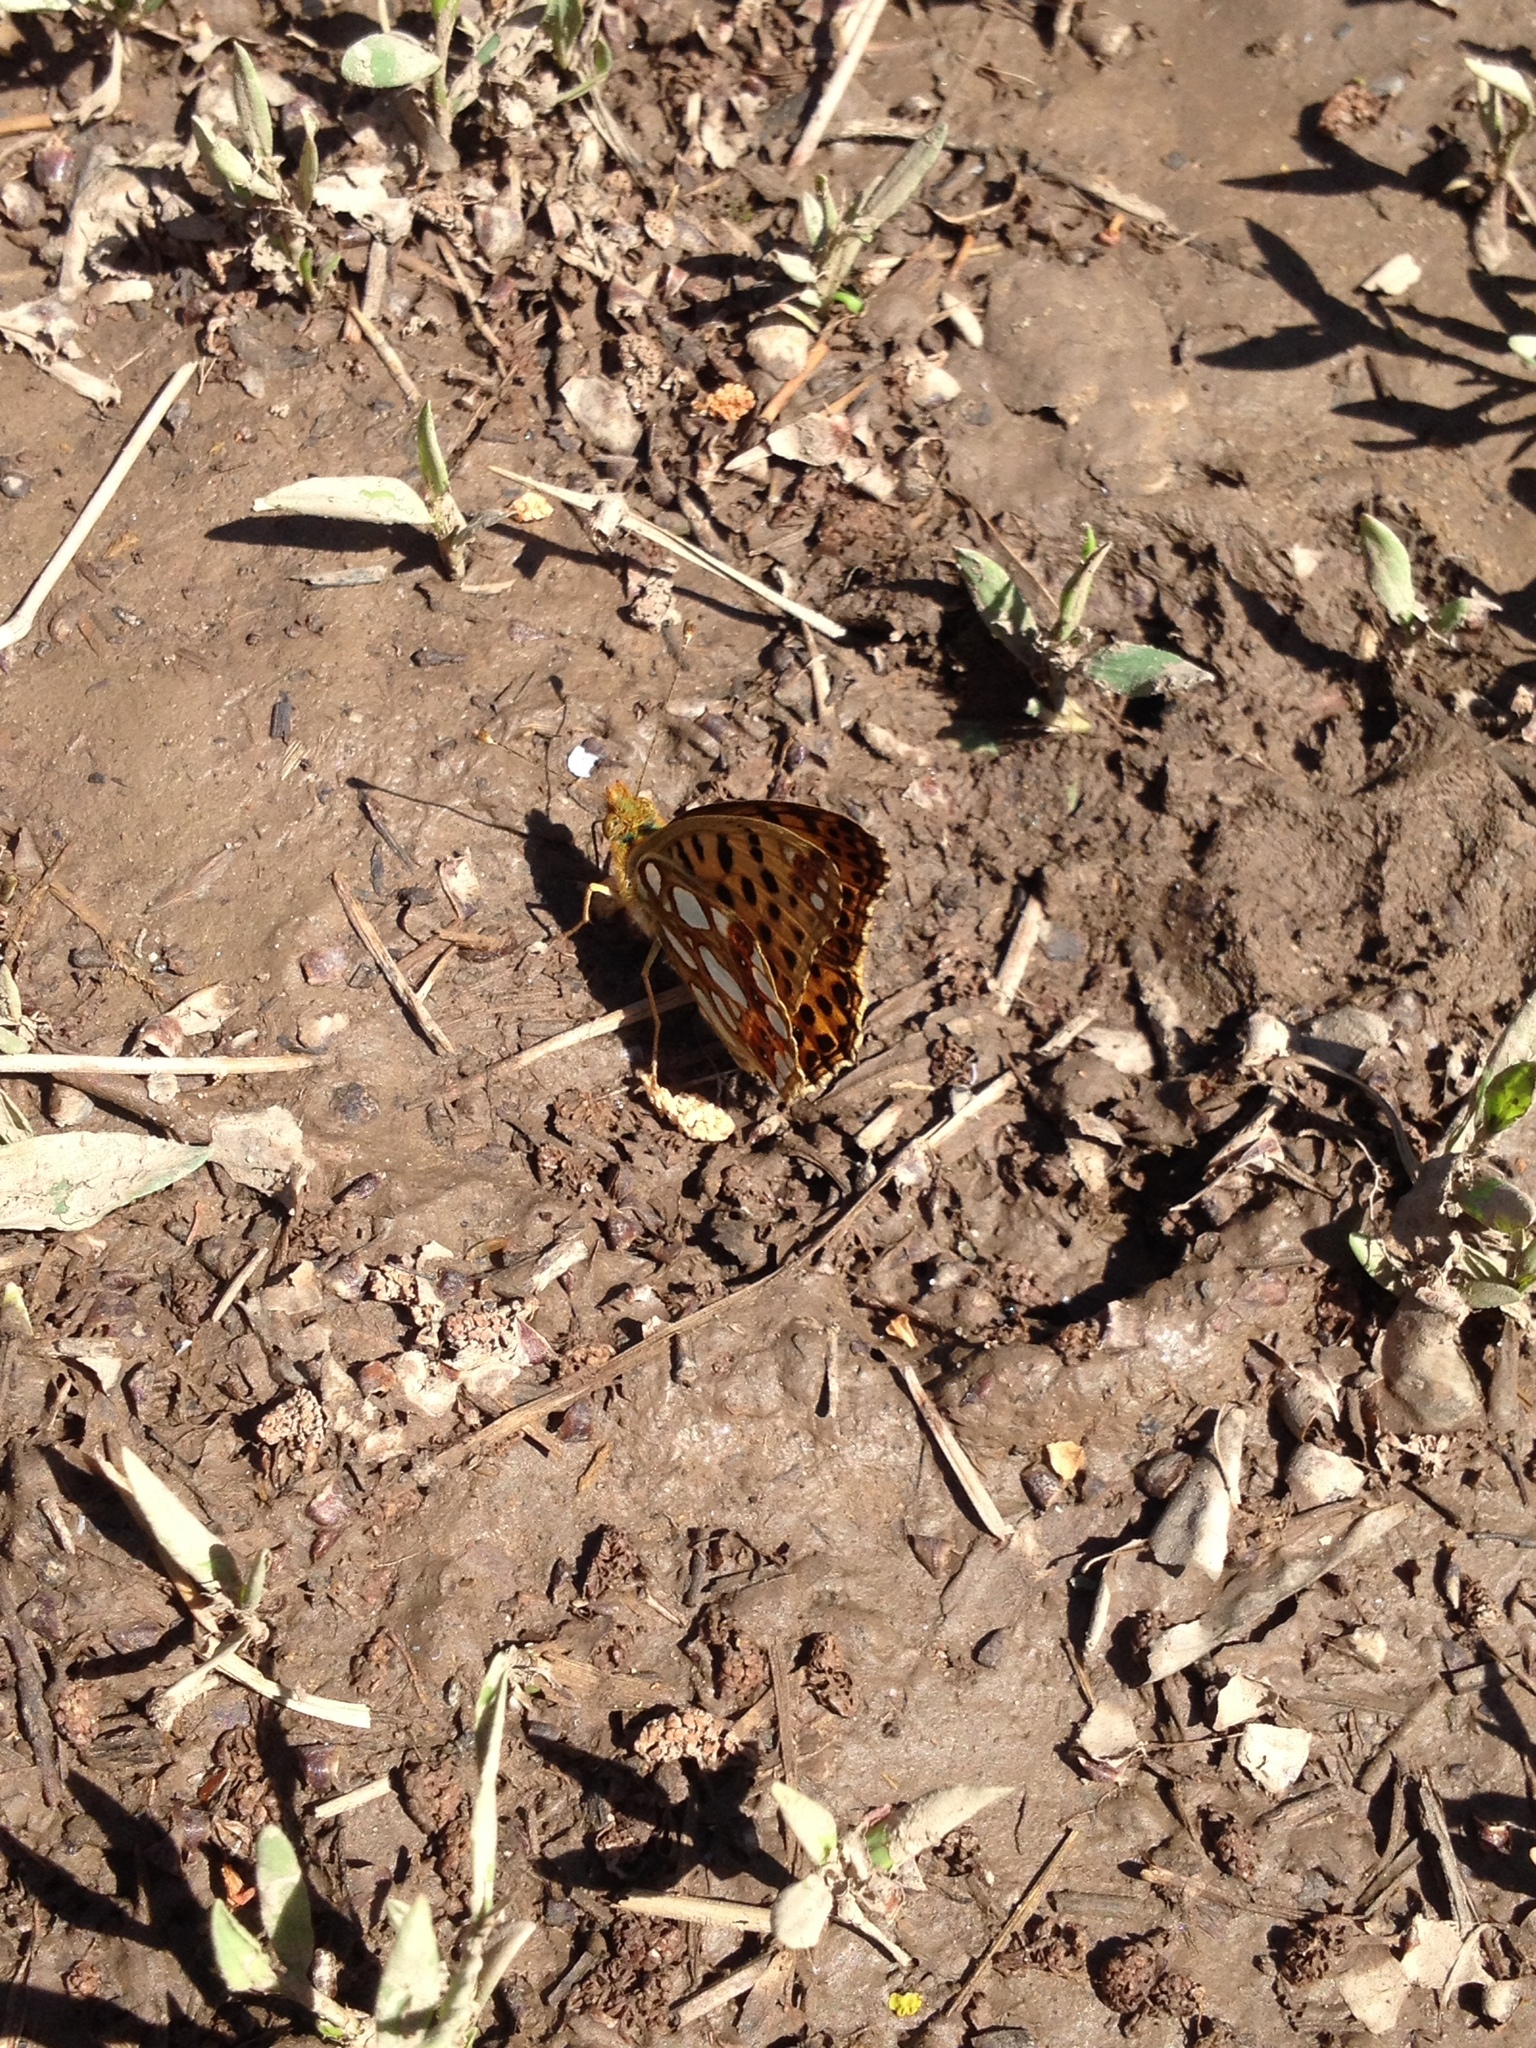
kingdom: Animalia
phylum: Arthropoda
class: Insecta
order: Lepidoptera
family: Nymphalidae
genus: Issoria
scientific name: Issoria lathonia
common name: Queen of spain fritillary
